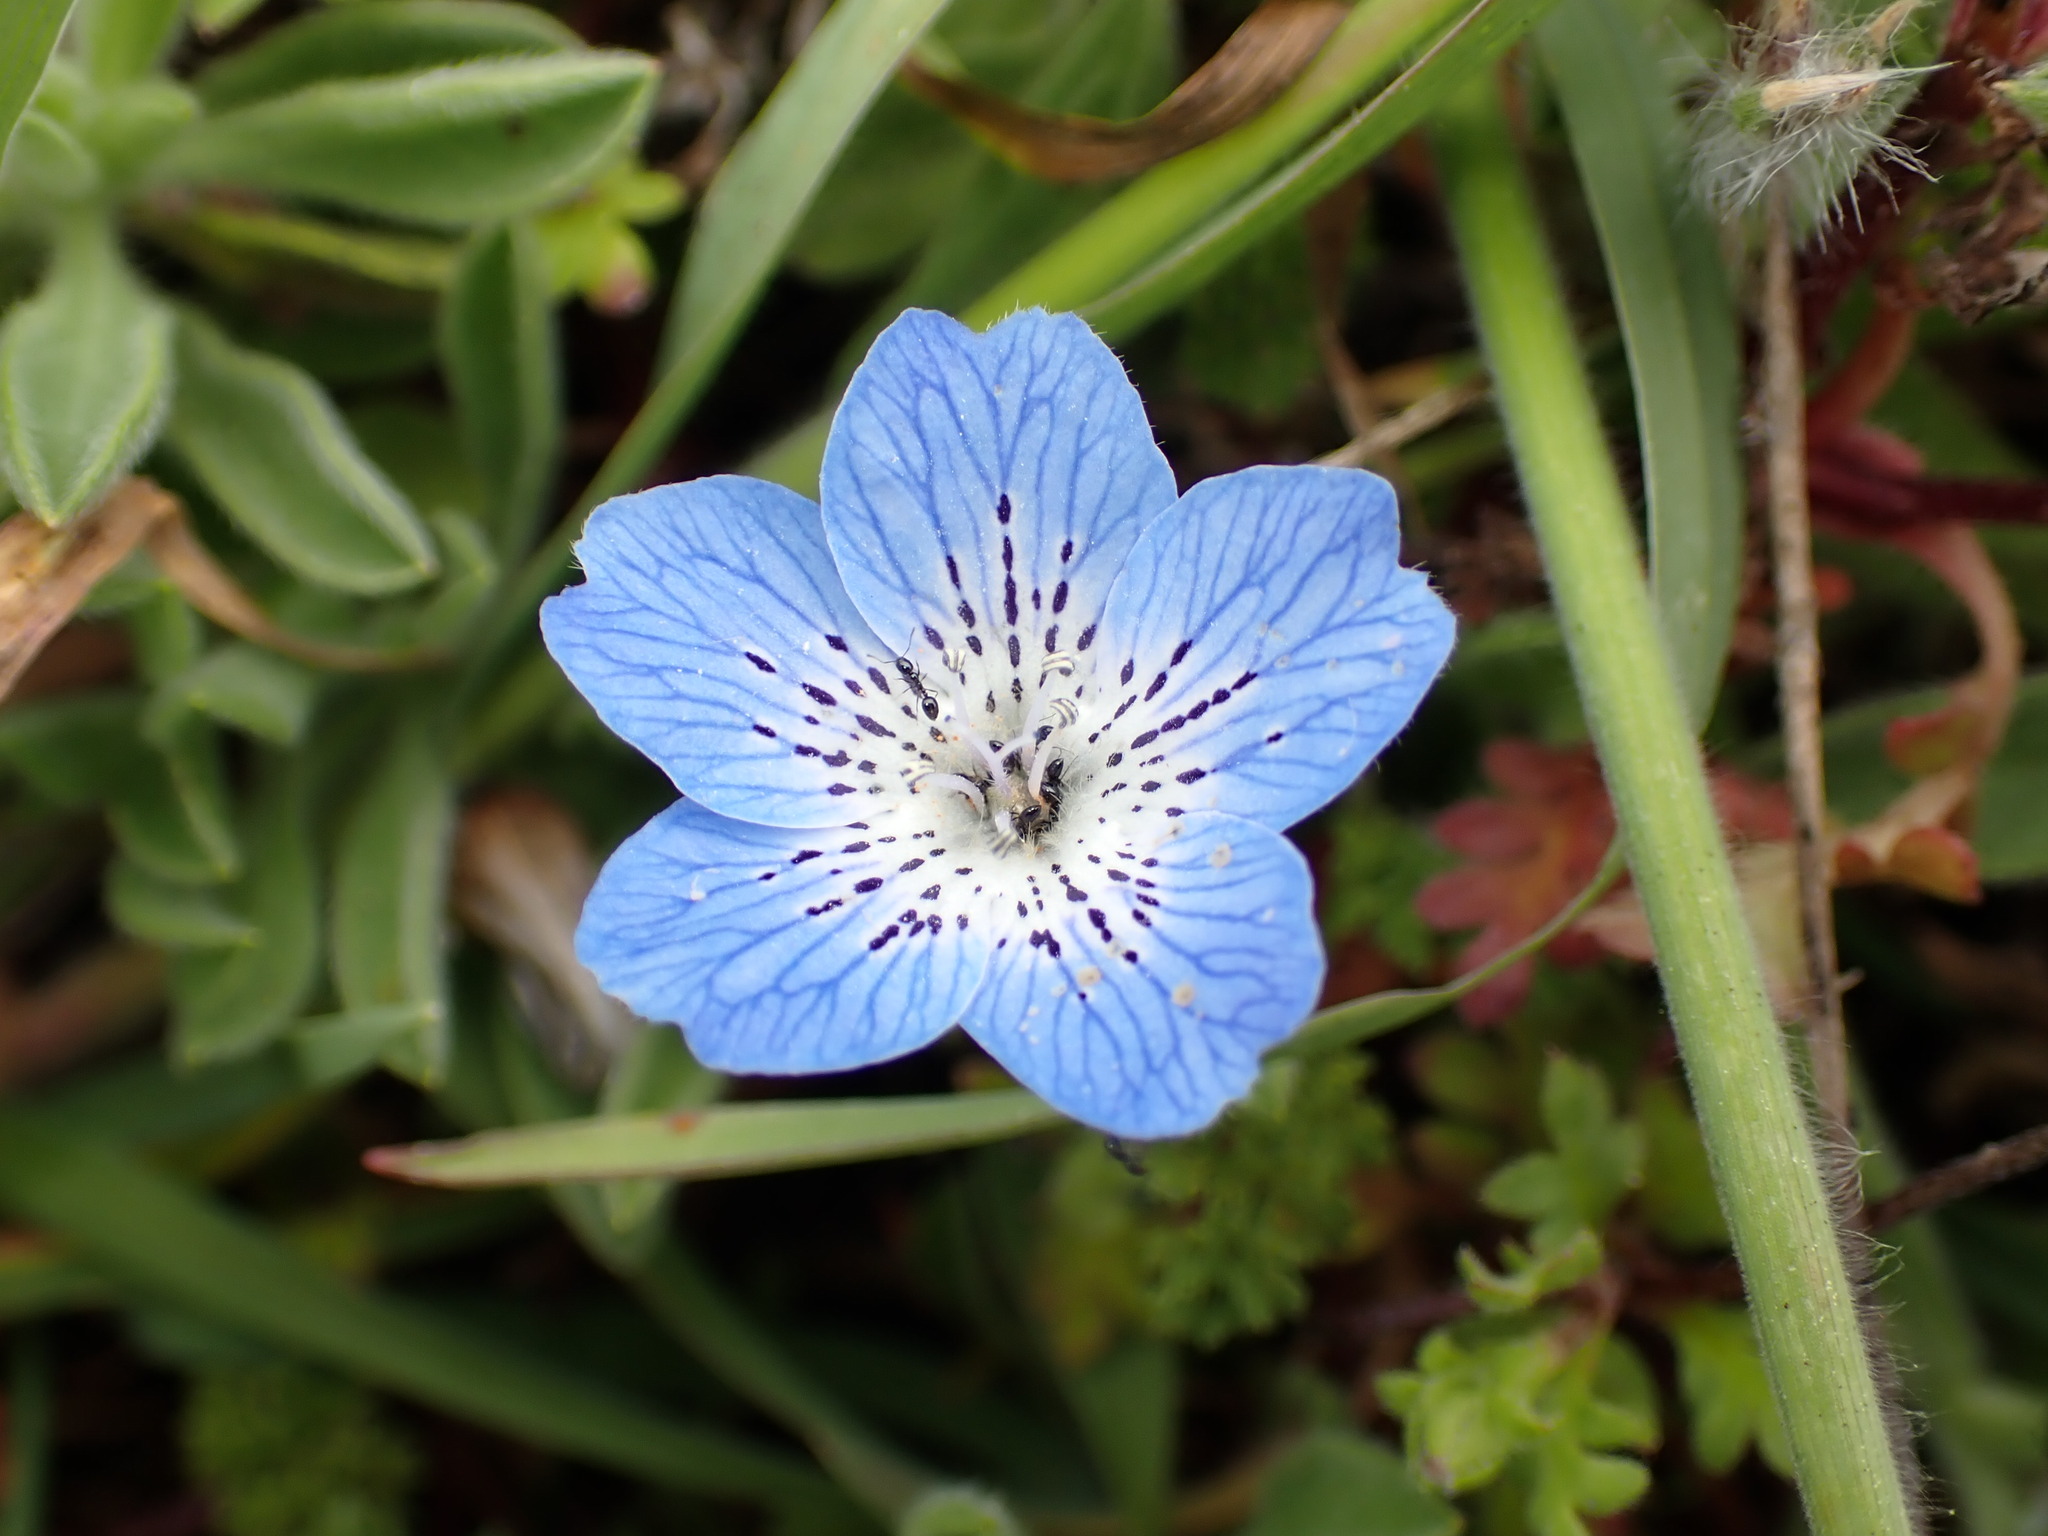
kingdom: Plantae
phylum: Tracheophyta
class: Magnoliopsida
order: Boraginales
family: Hydrophyllaceae
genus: Nemophila
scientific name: Nemophila menziesii
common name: Baby's-blue-eyes
